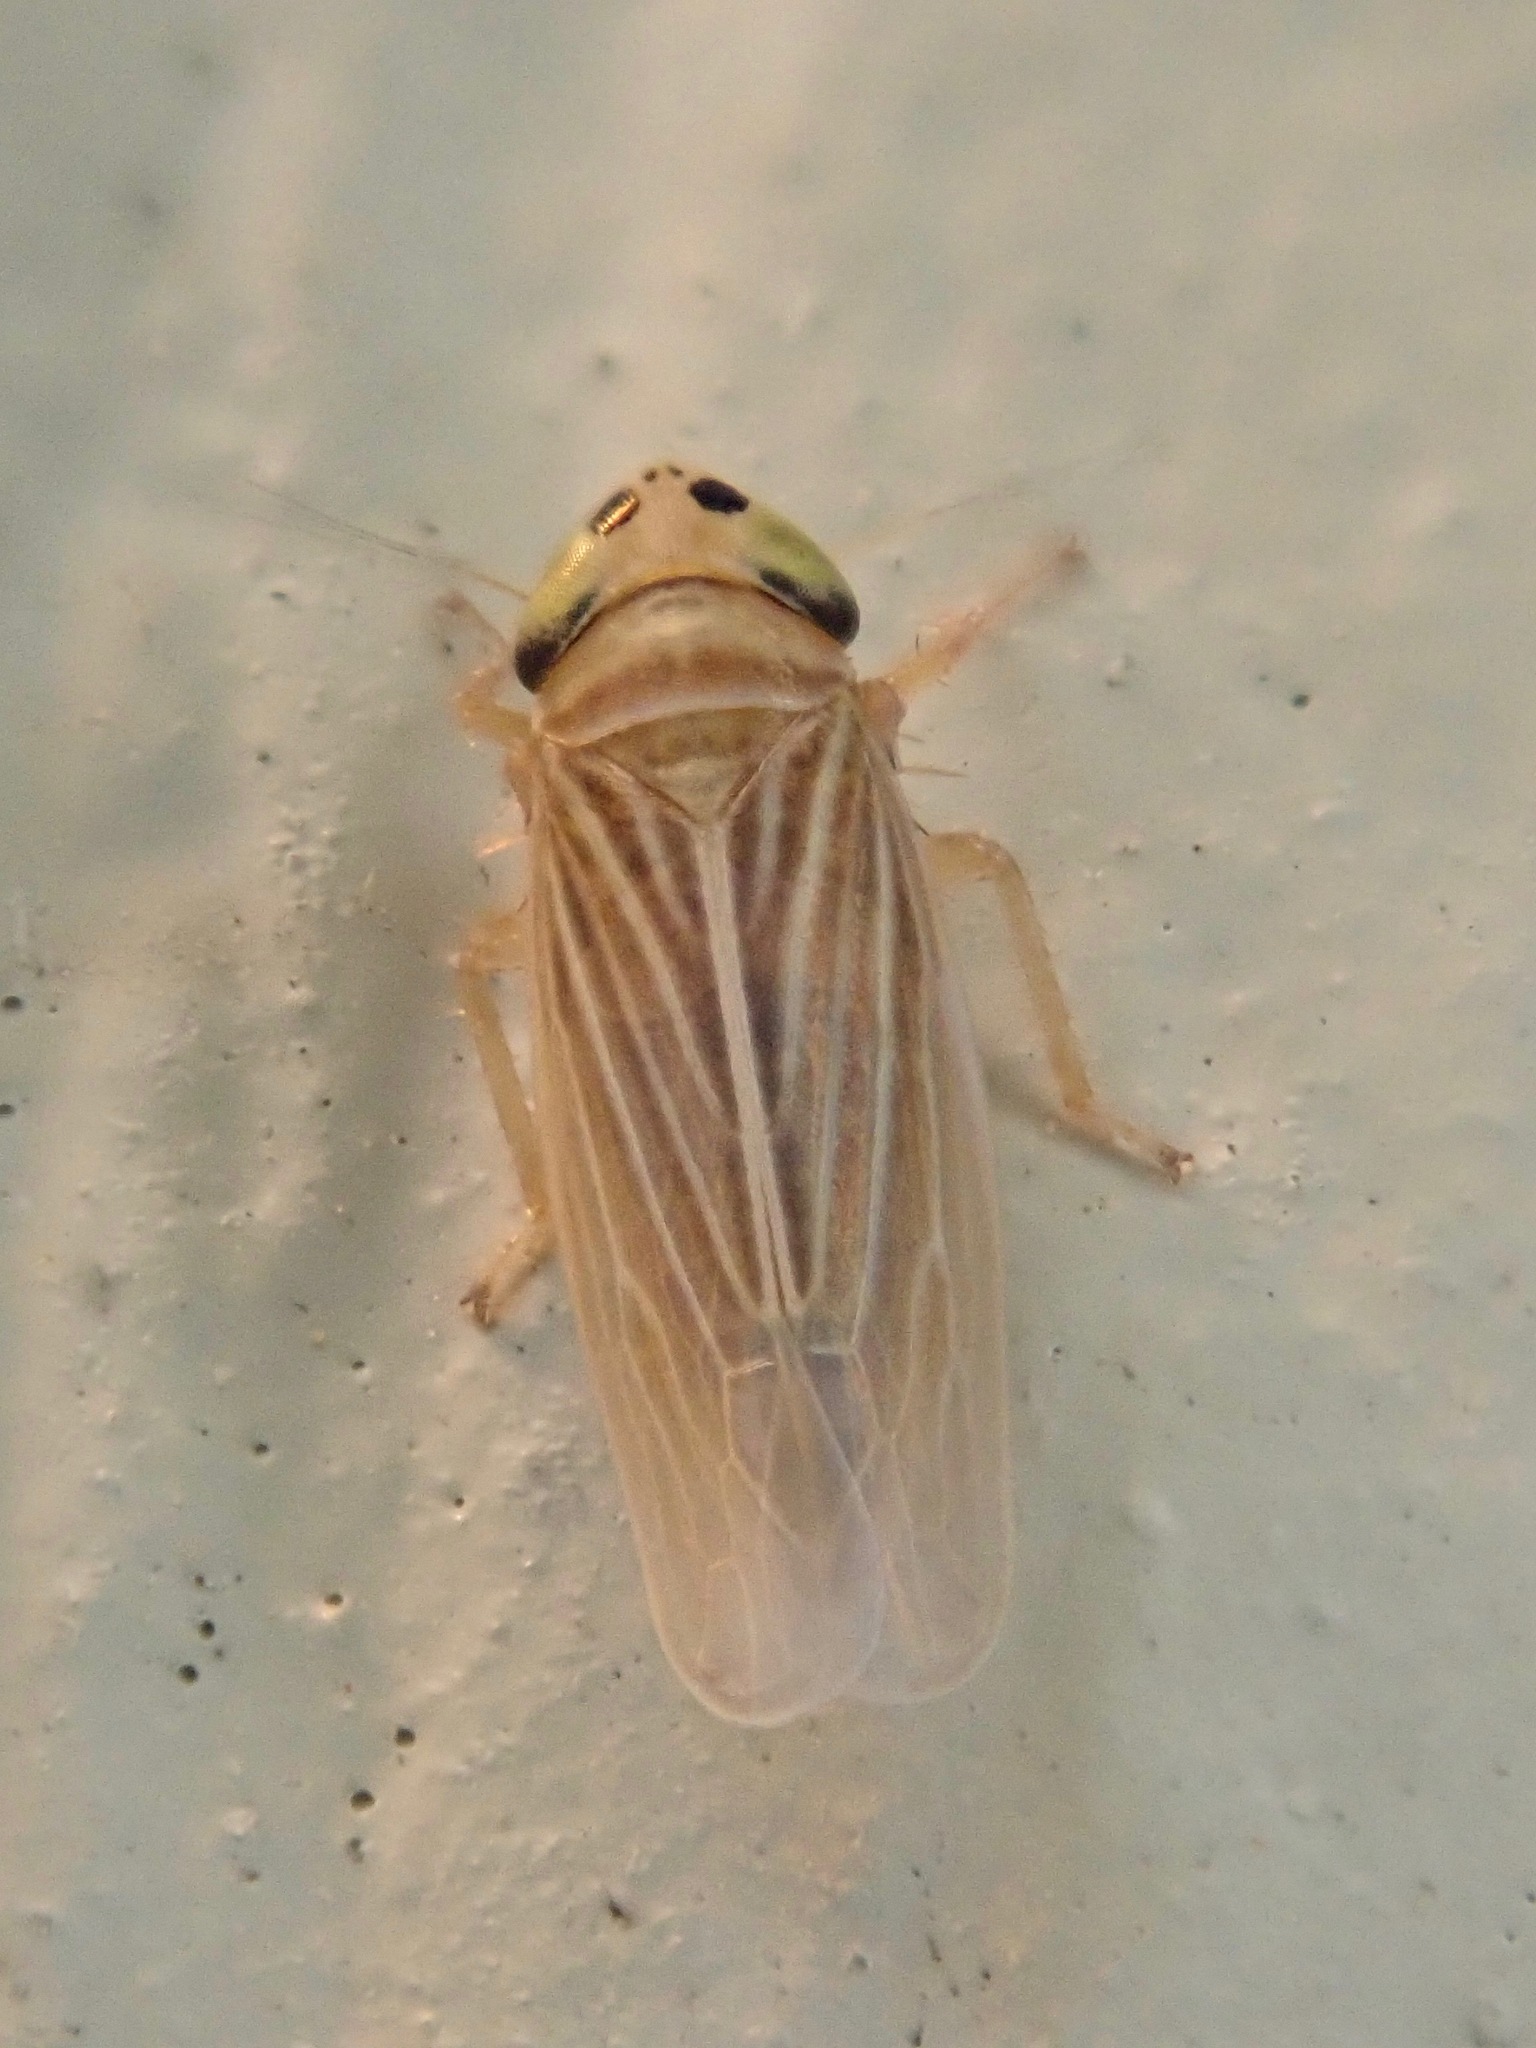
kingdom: Animalia
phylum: Arthropoda
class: Insecta
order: Hemiptera
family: Cicadellidae
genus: Graminella
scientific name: Graminella villicus
